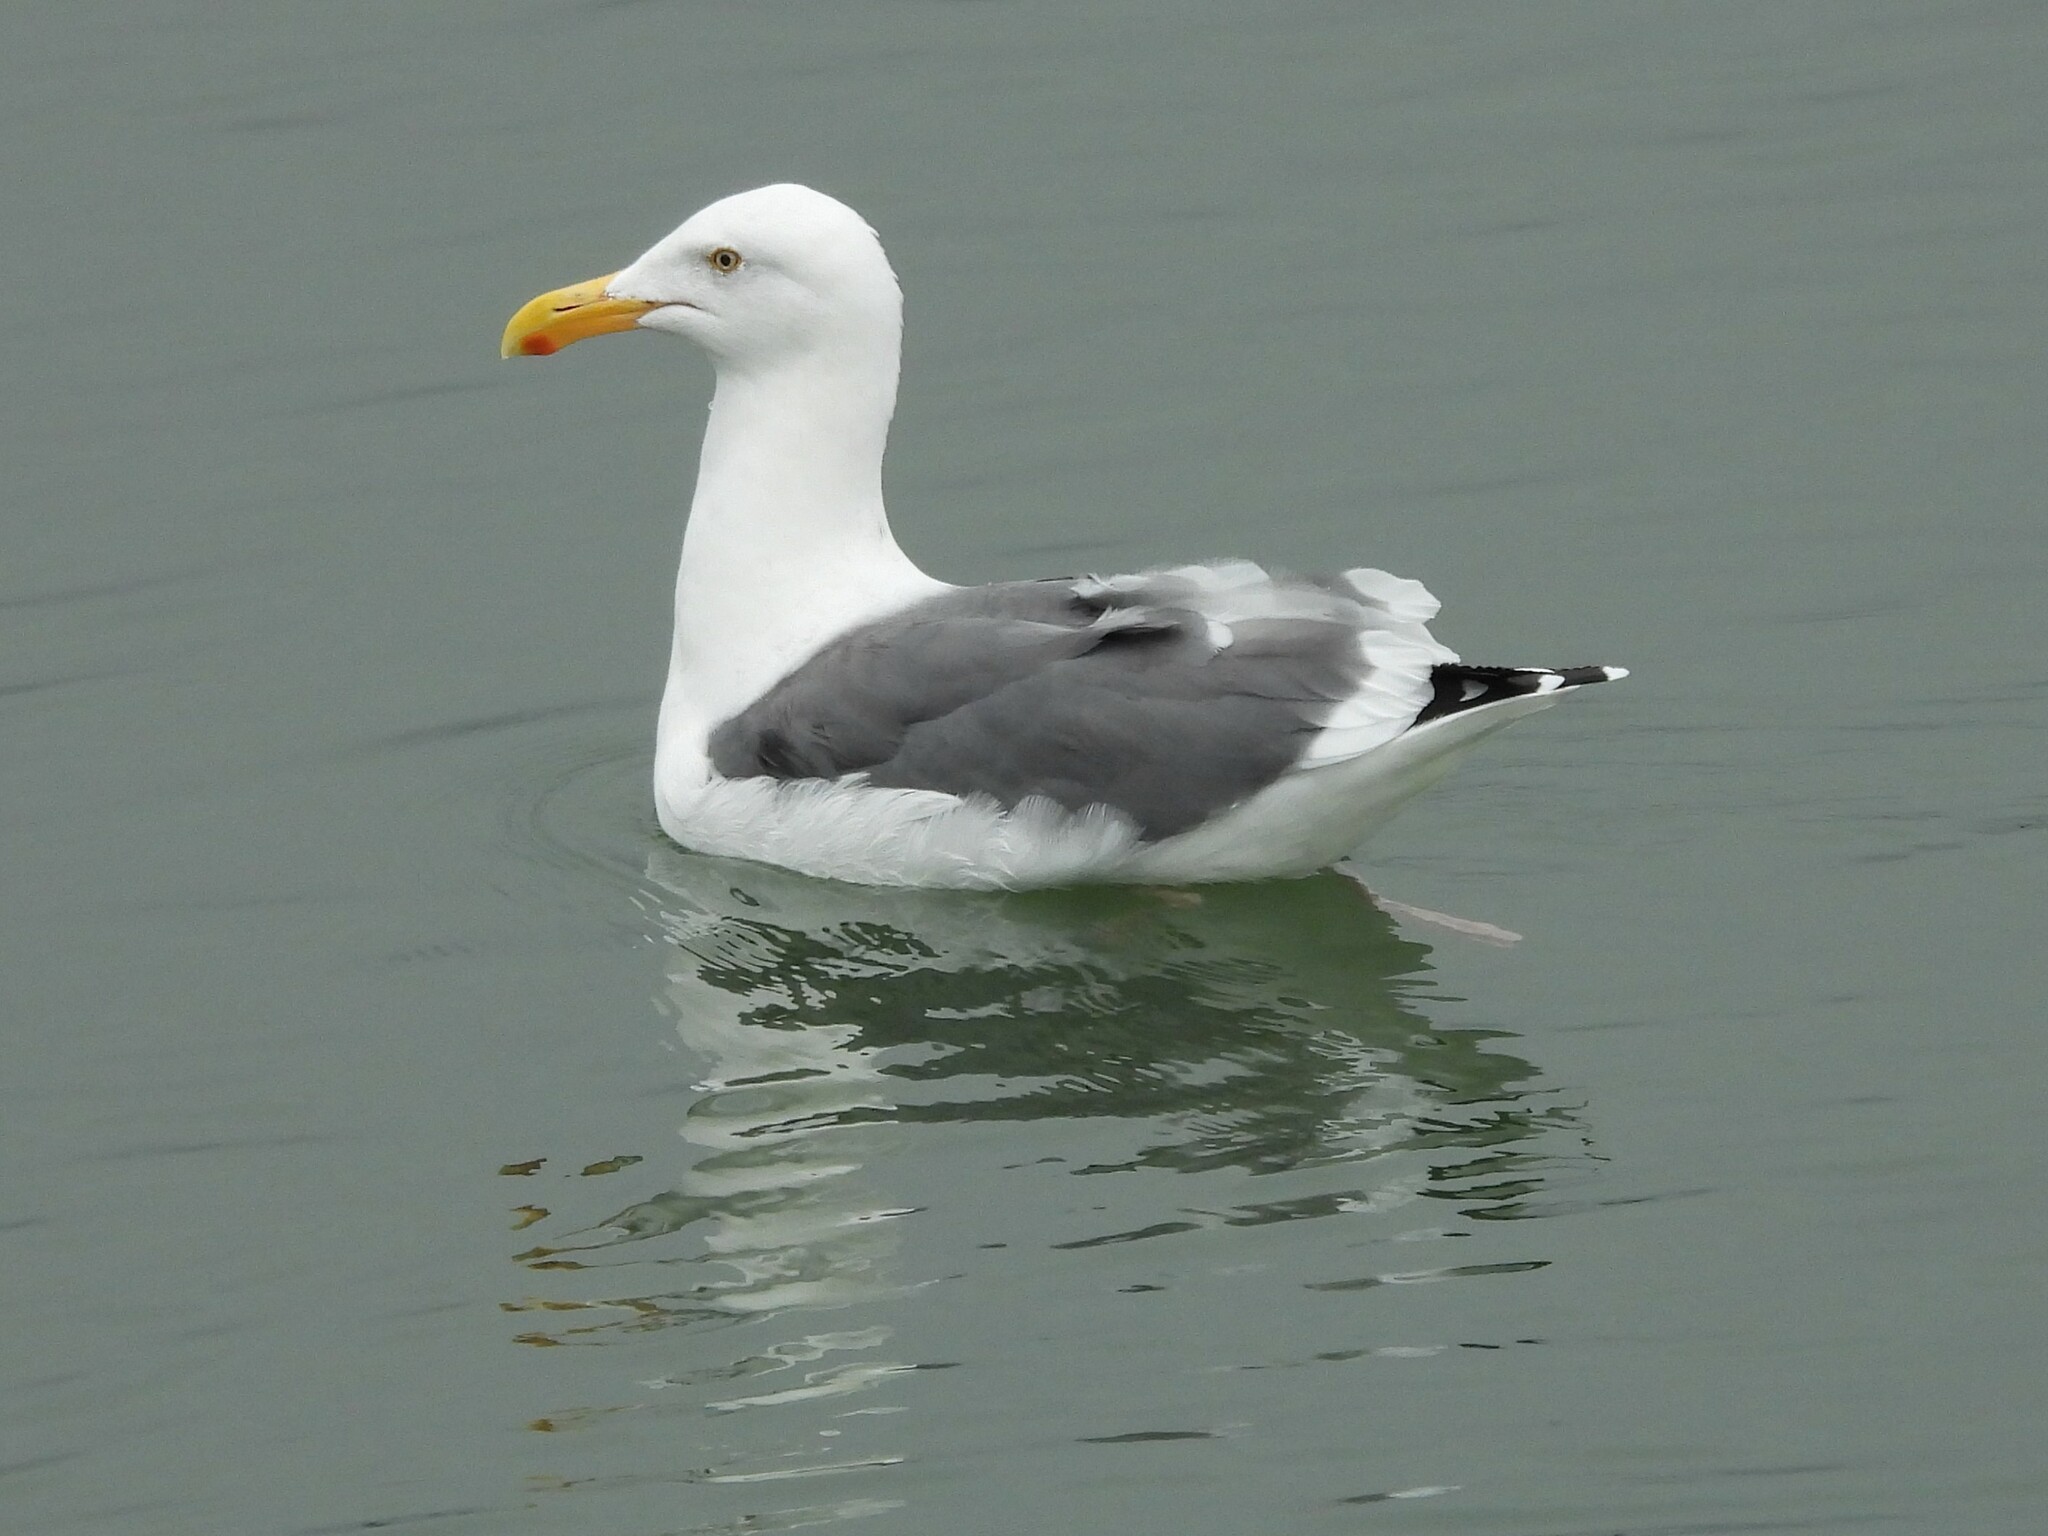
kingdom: Animalia
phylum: Chordata
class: Aves
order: Charadriiformes
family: Laridae
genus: Larus
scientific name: Larus occidentalis
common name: Western gull
